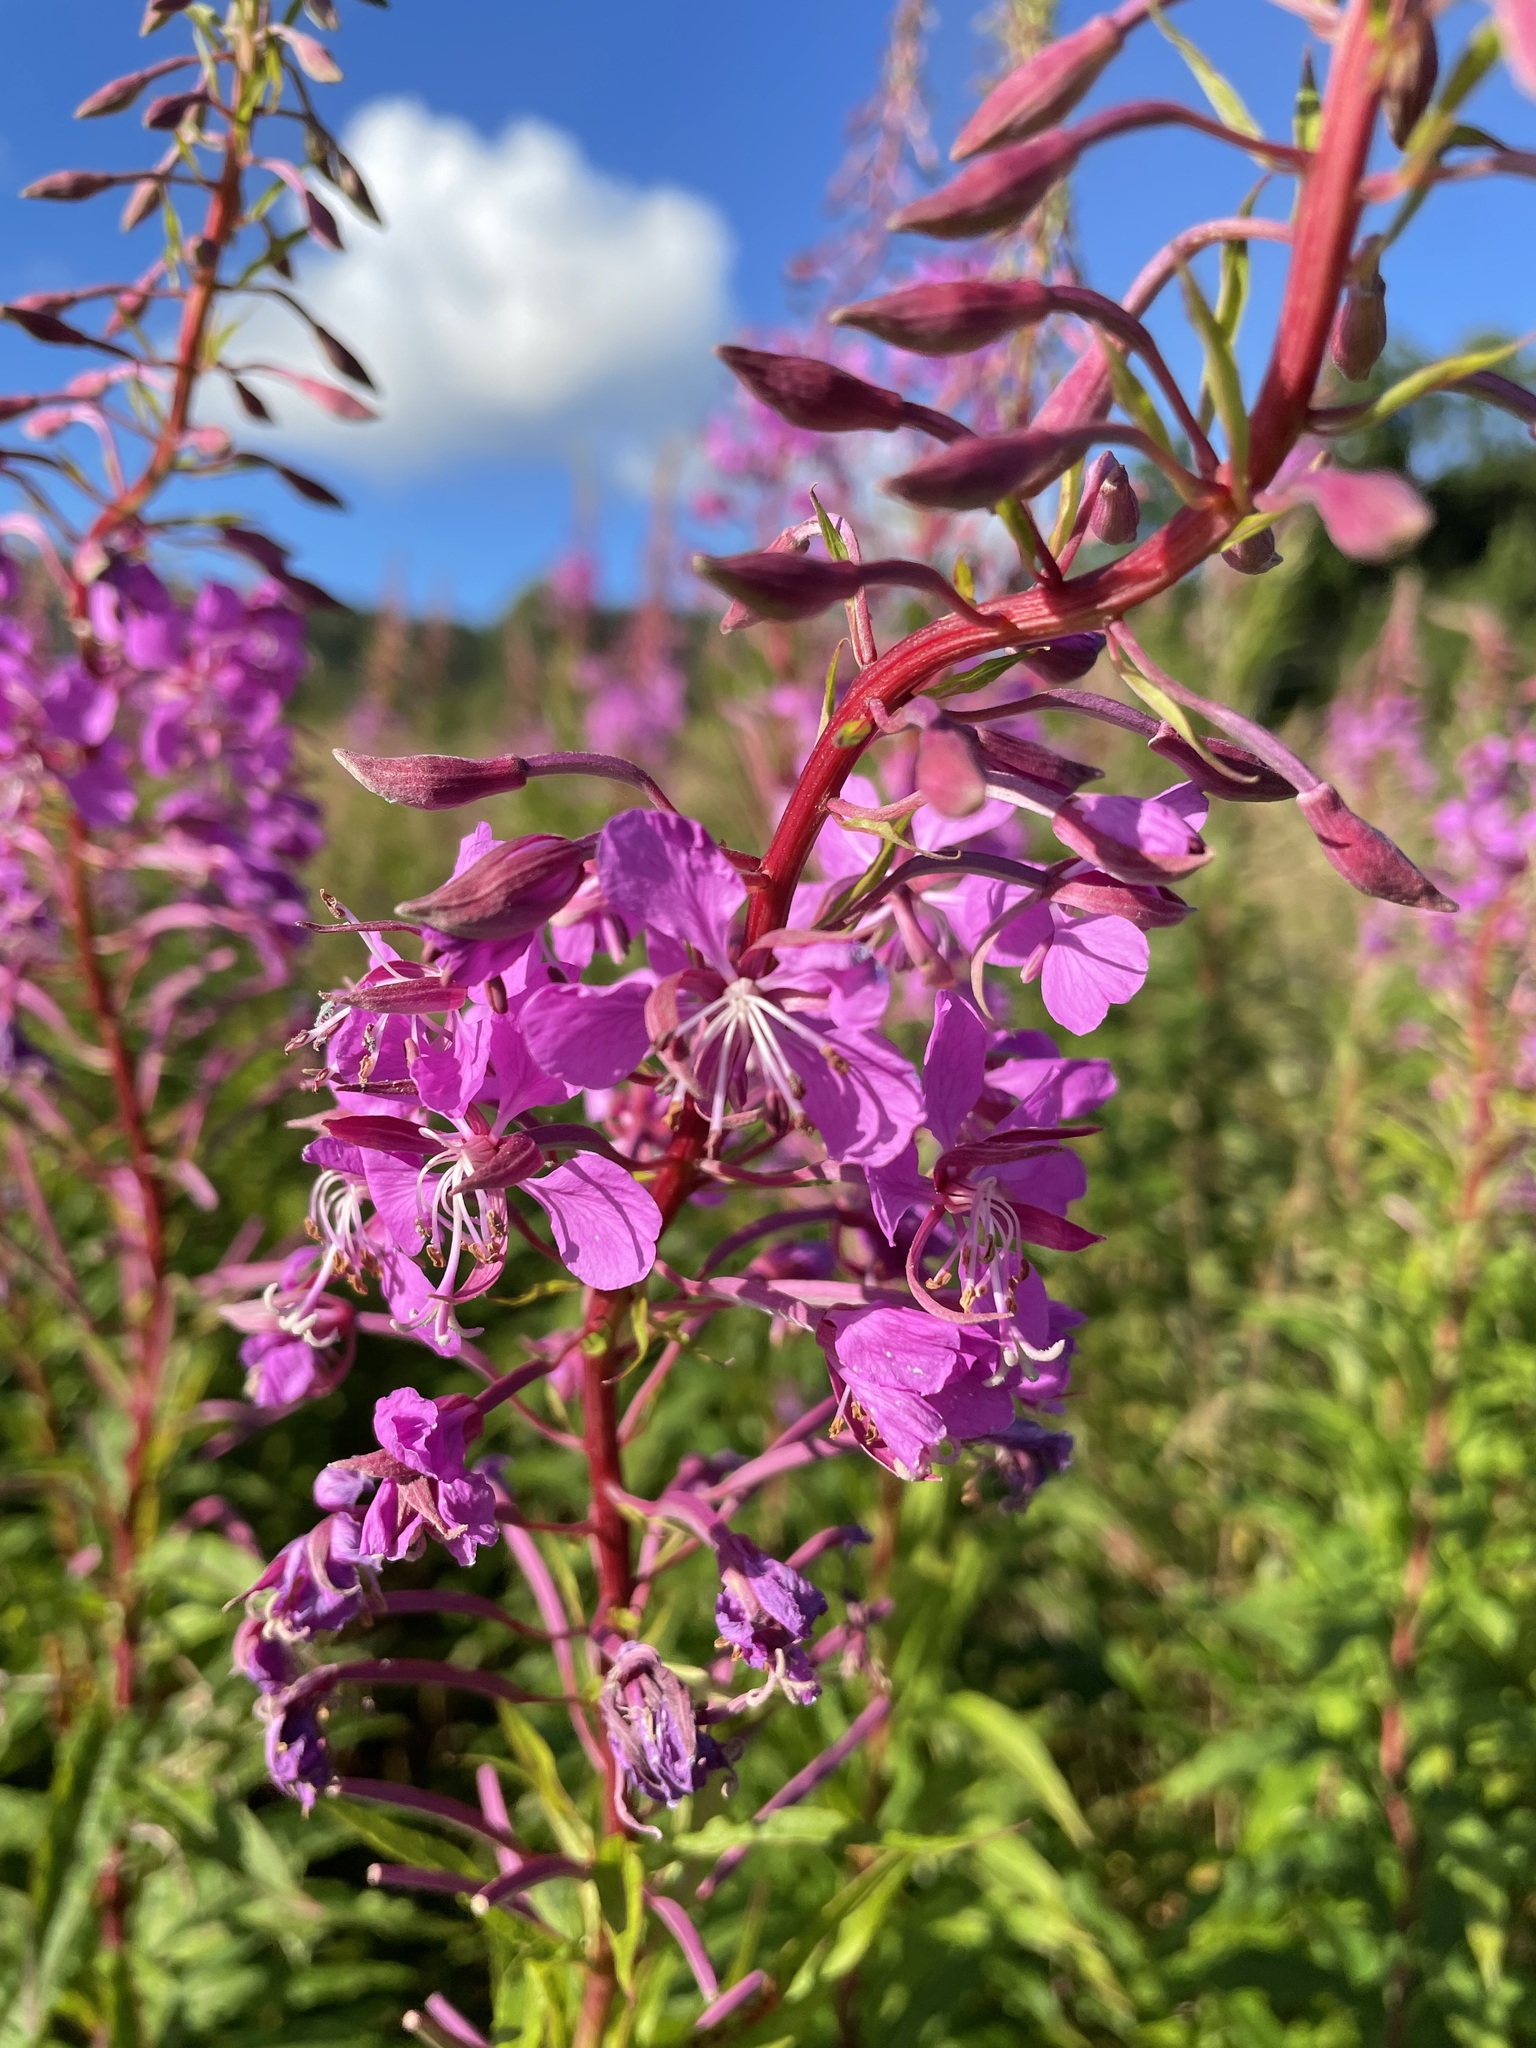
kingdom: Plantae
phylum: Tracheophyta
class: Magnoliopsida
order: Myrtales
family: Onagraceae
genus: Chamaenerion
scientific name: Chamaenerion angustifolium
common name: Fireweed
